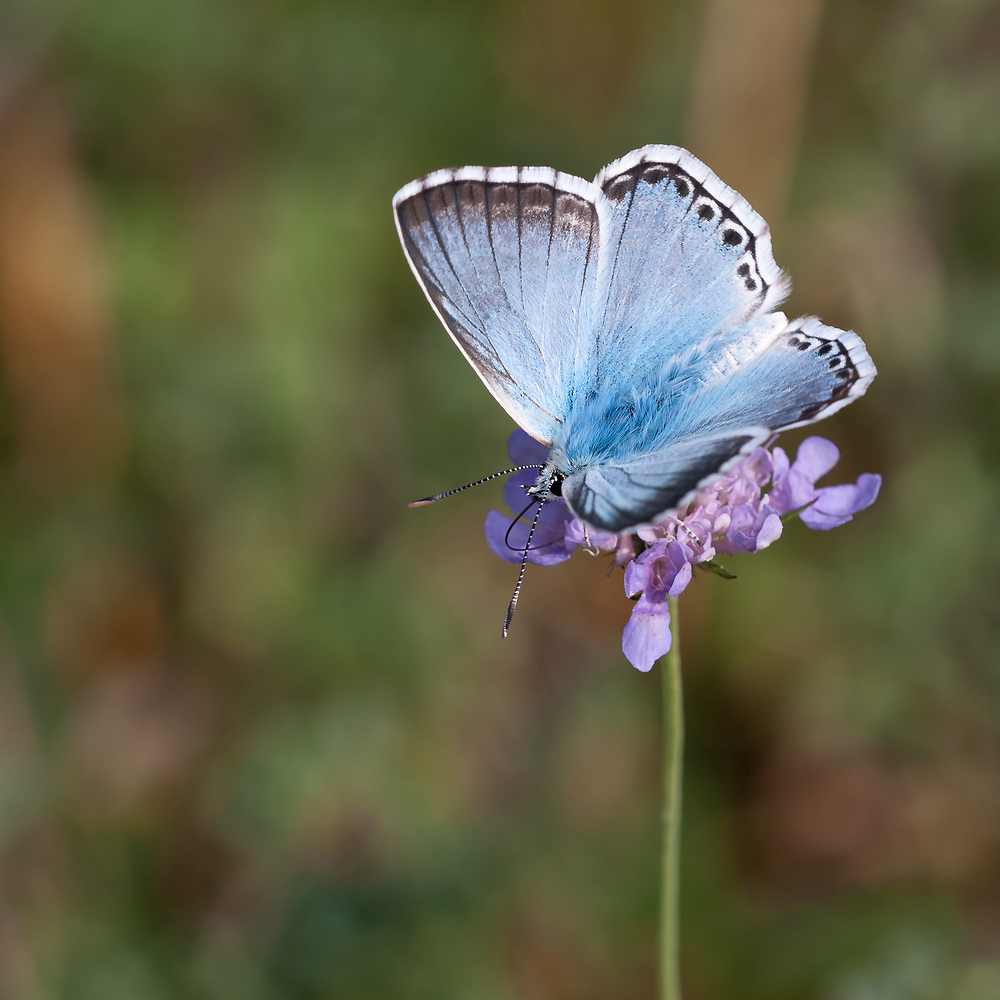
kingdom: Animalia
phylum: Arthropoda
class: Insecta
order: Lepidoptera
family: Lycaenidae
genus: Lysandra
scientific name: Lysandra coridon
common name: Chalkhill blue
